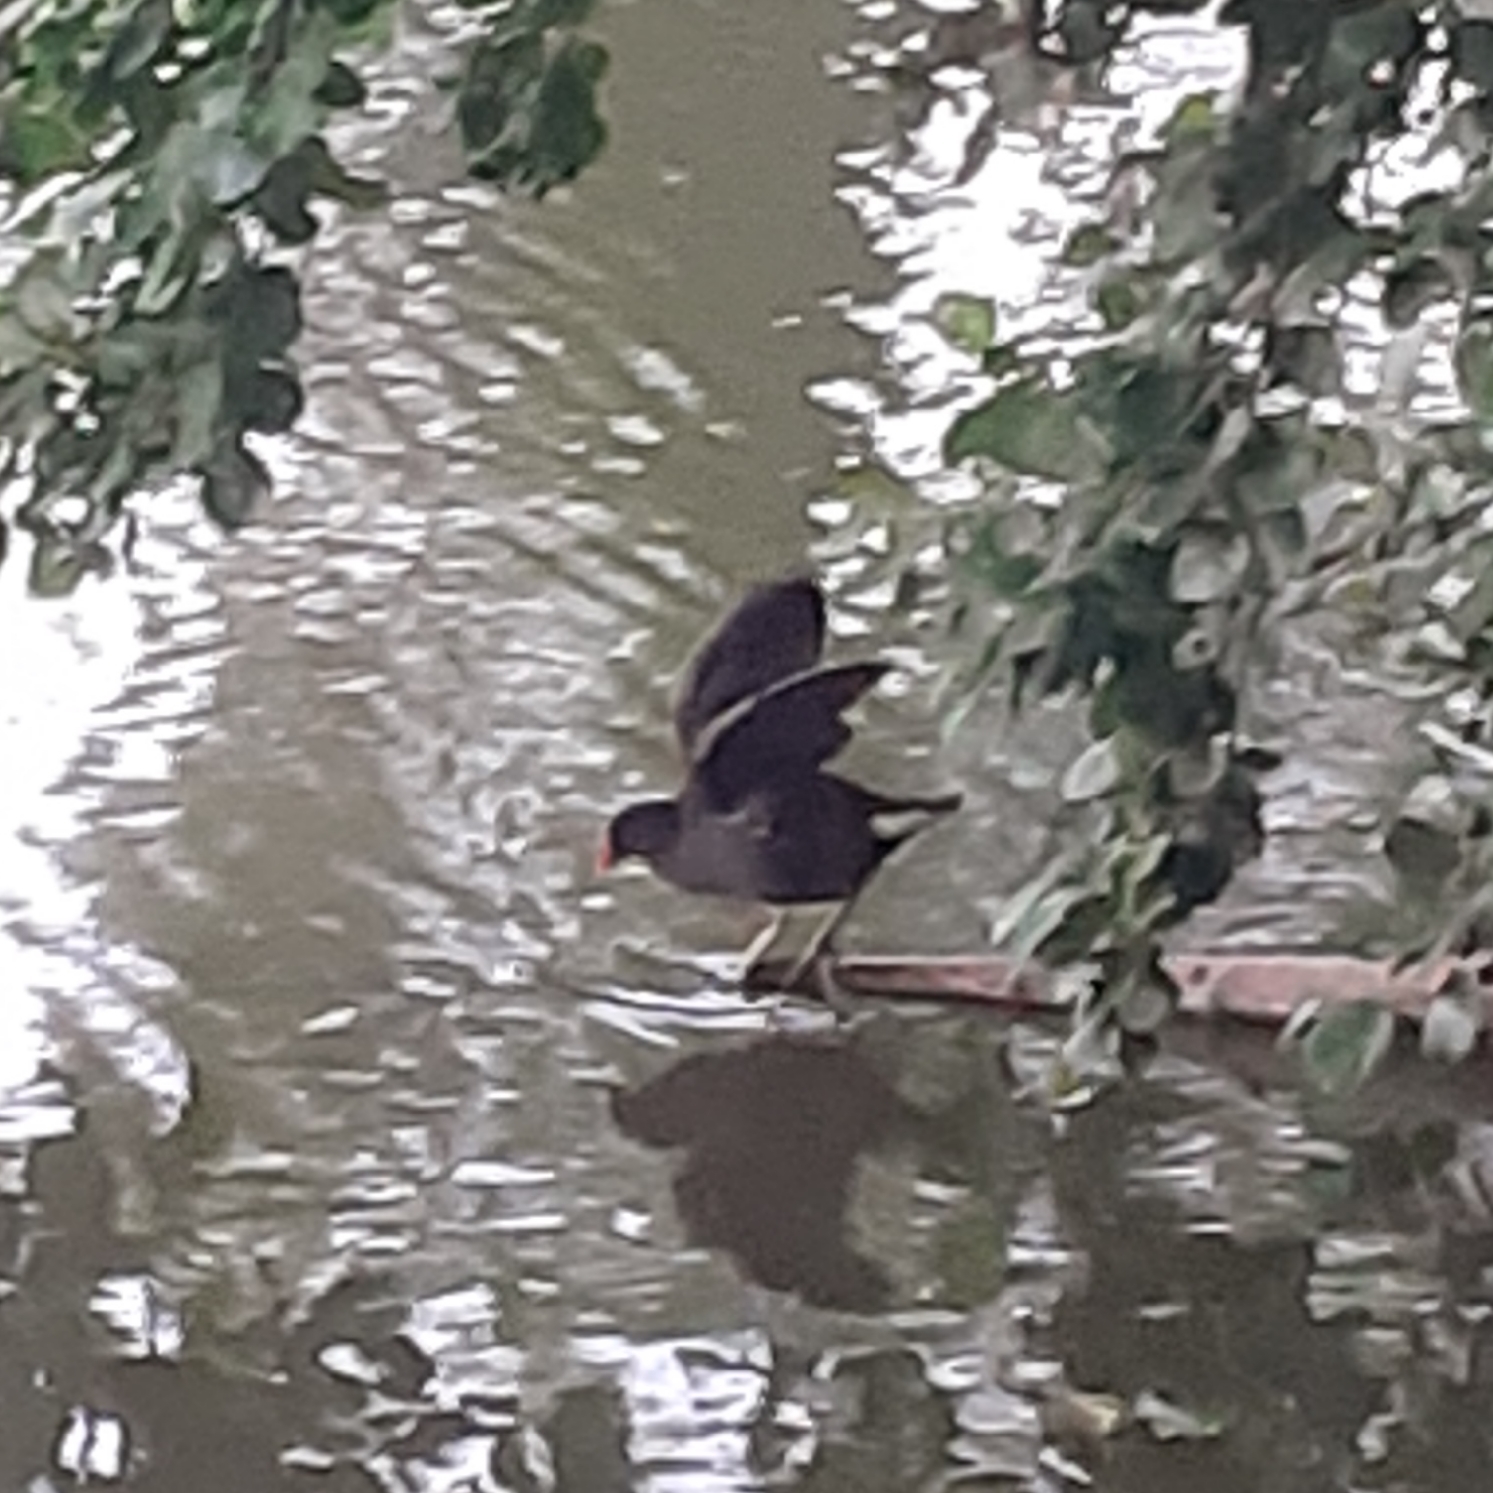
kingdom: Animalia
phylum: Chordata
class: Aves
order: Gruiformes
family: Rallidae
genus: Gallinula
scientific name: Gallinula chloropus
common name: Common moorhen
